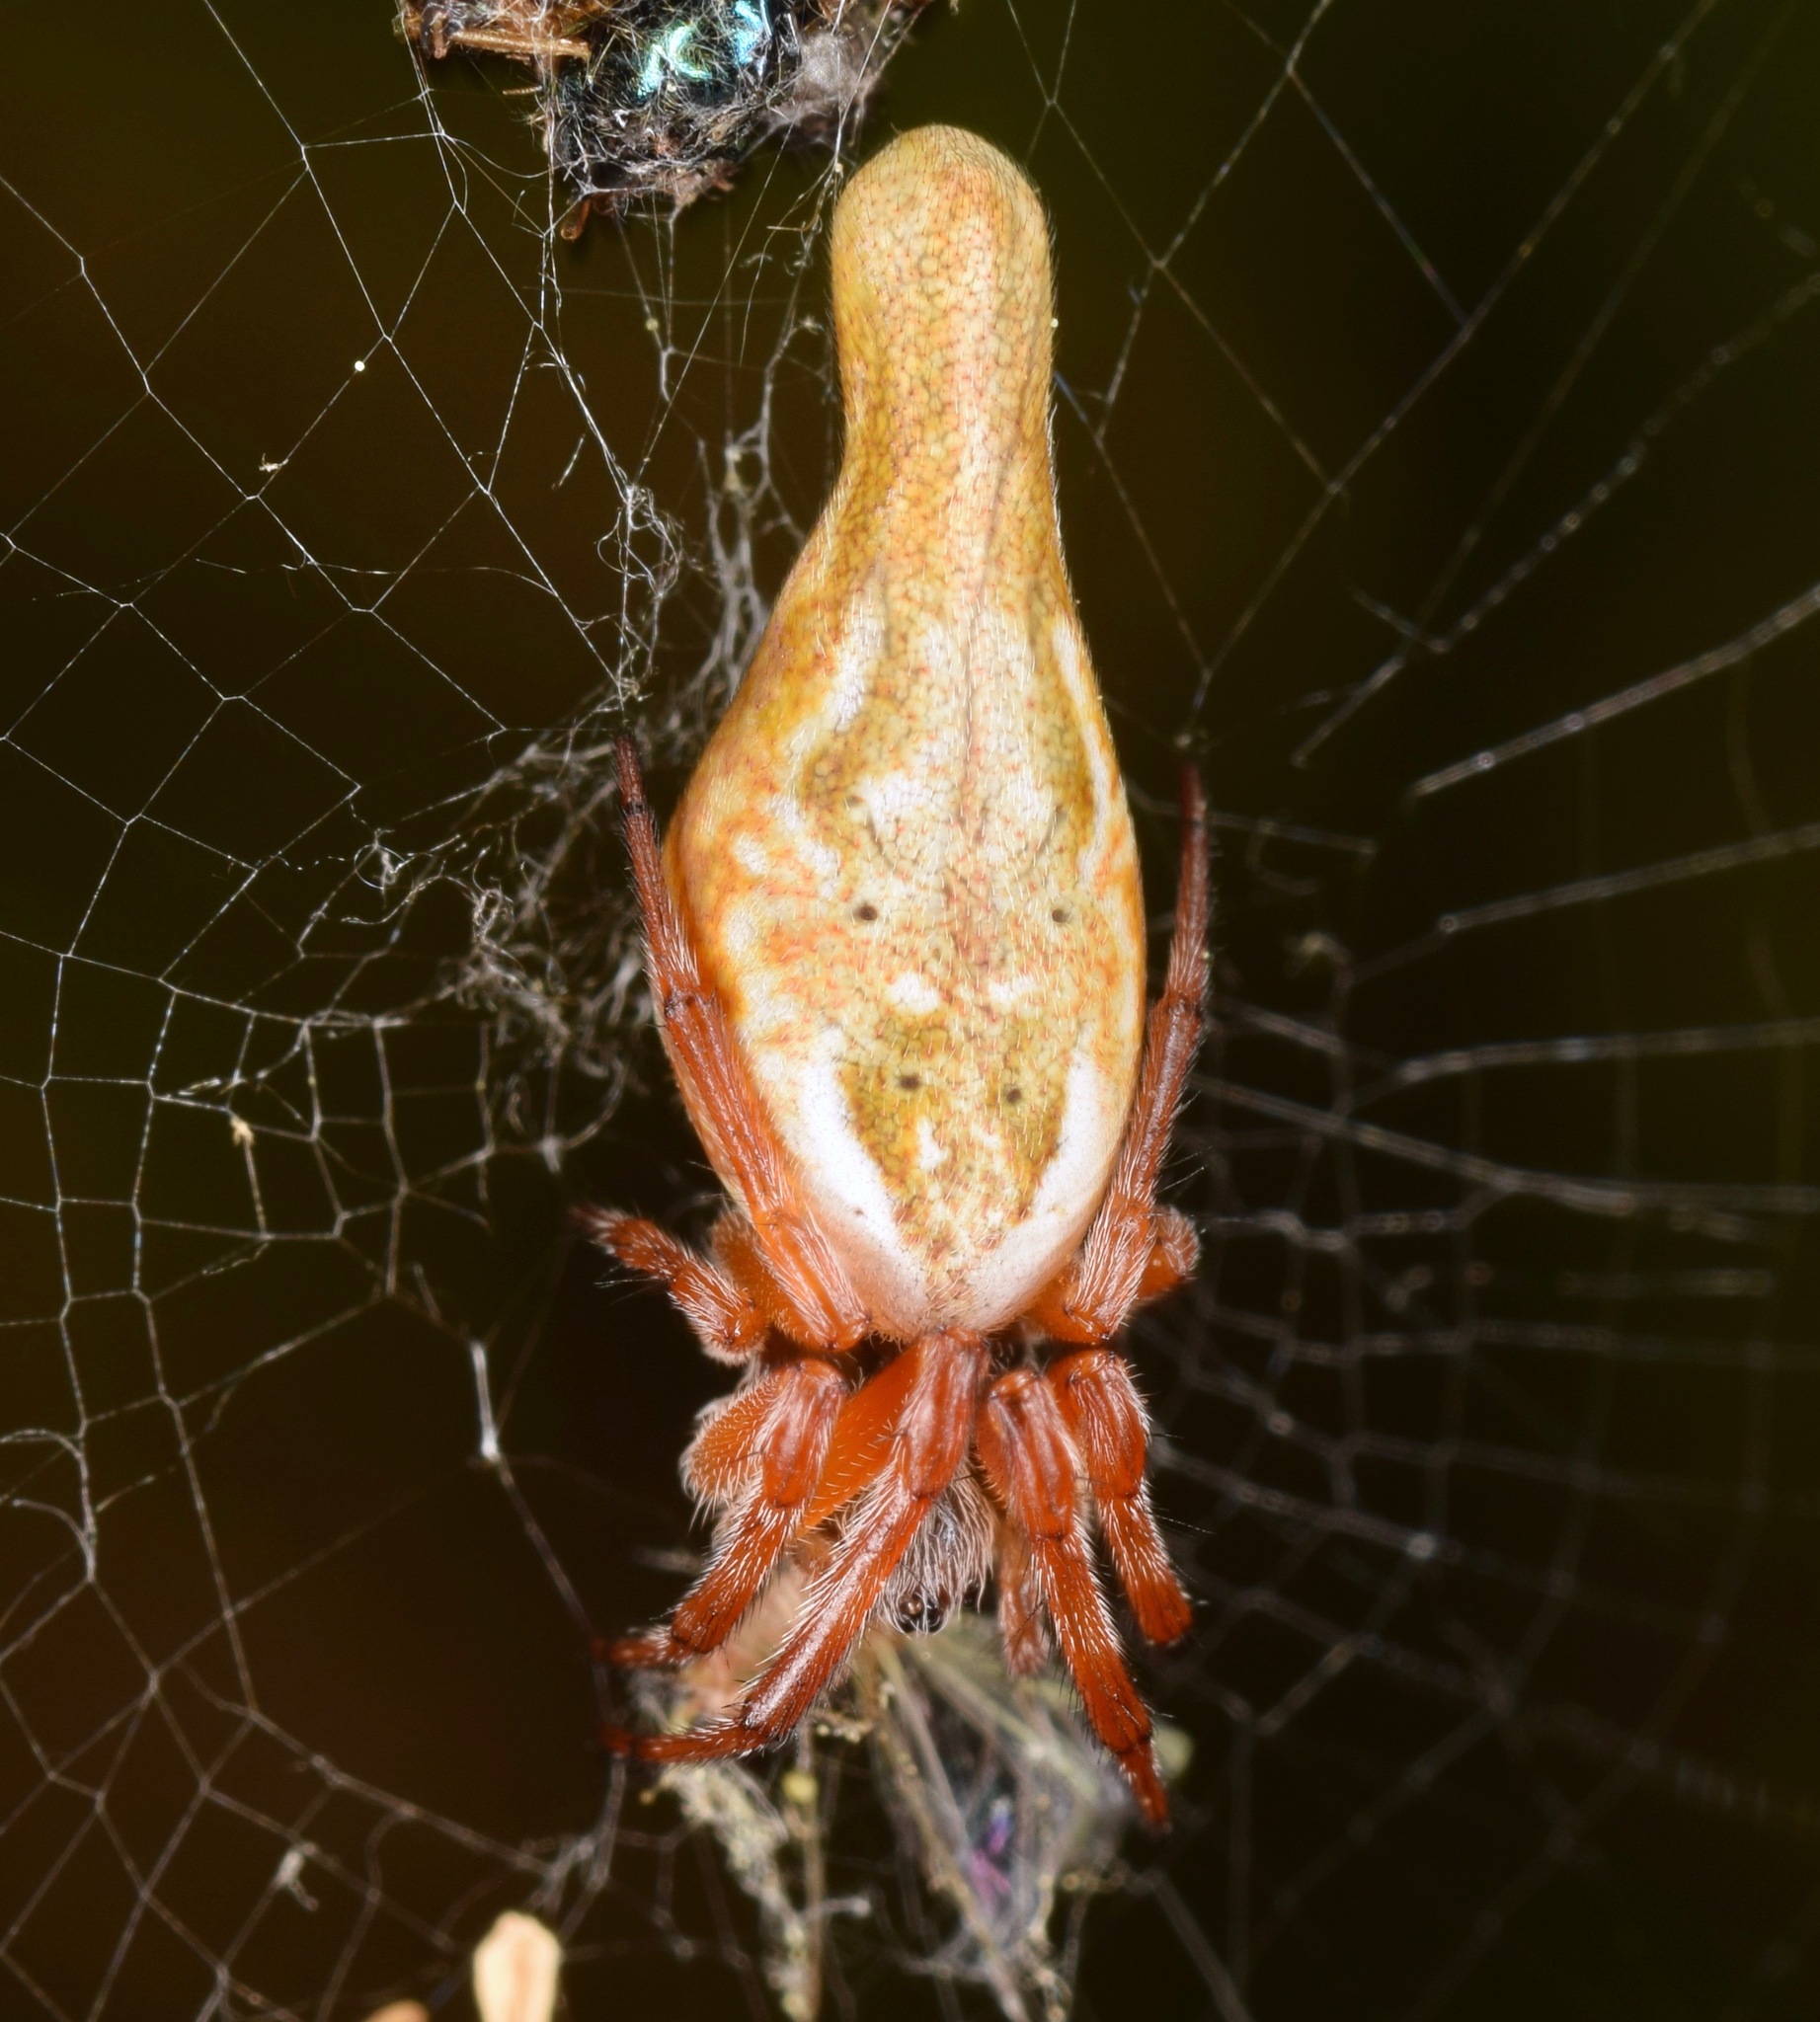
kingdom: Animalia
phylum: Arthropoda
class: Arachnida
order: Araneae
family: Araneidae
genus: Cyclosa
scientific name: Cyclosa conica
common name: Conical trashline orbweaver
